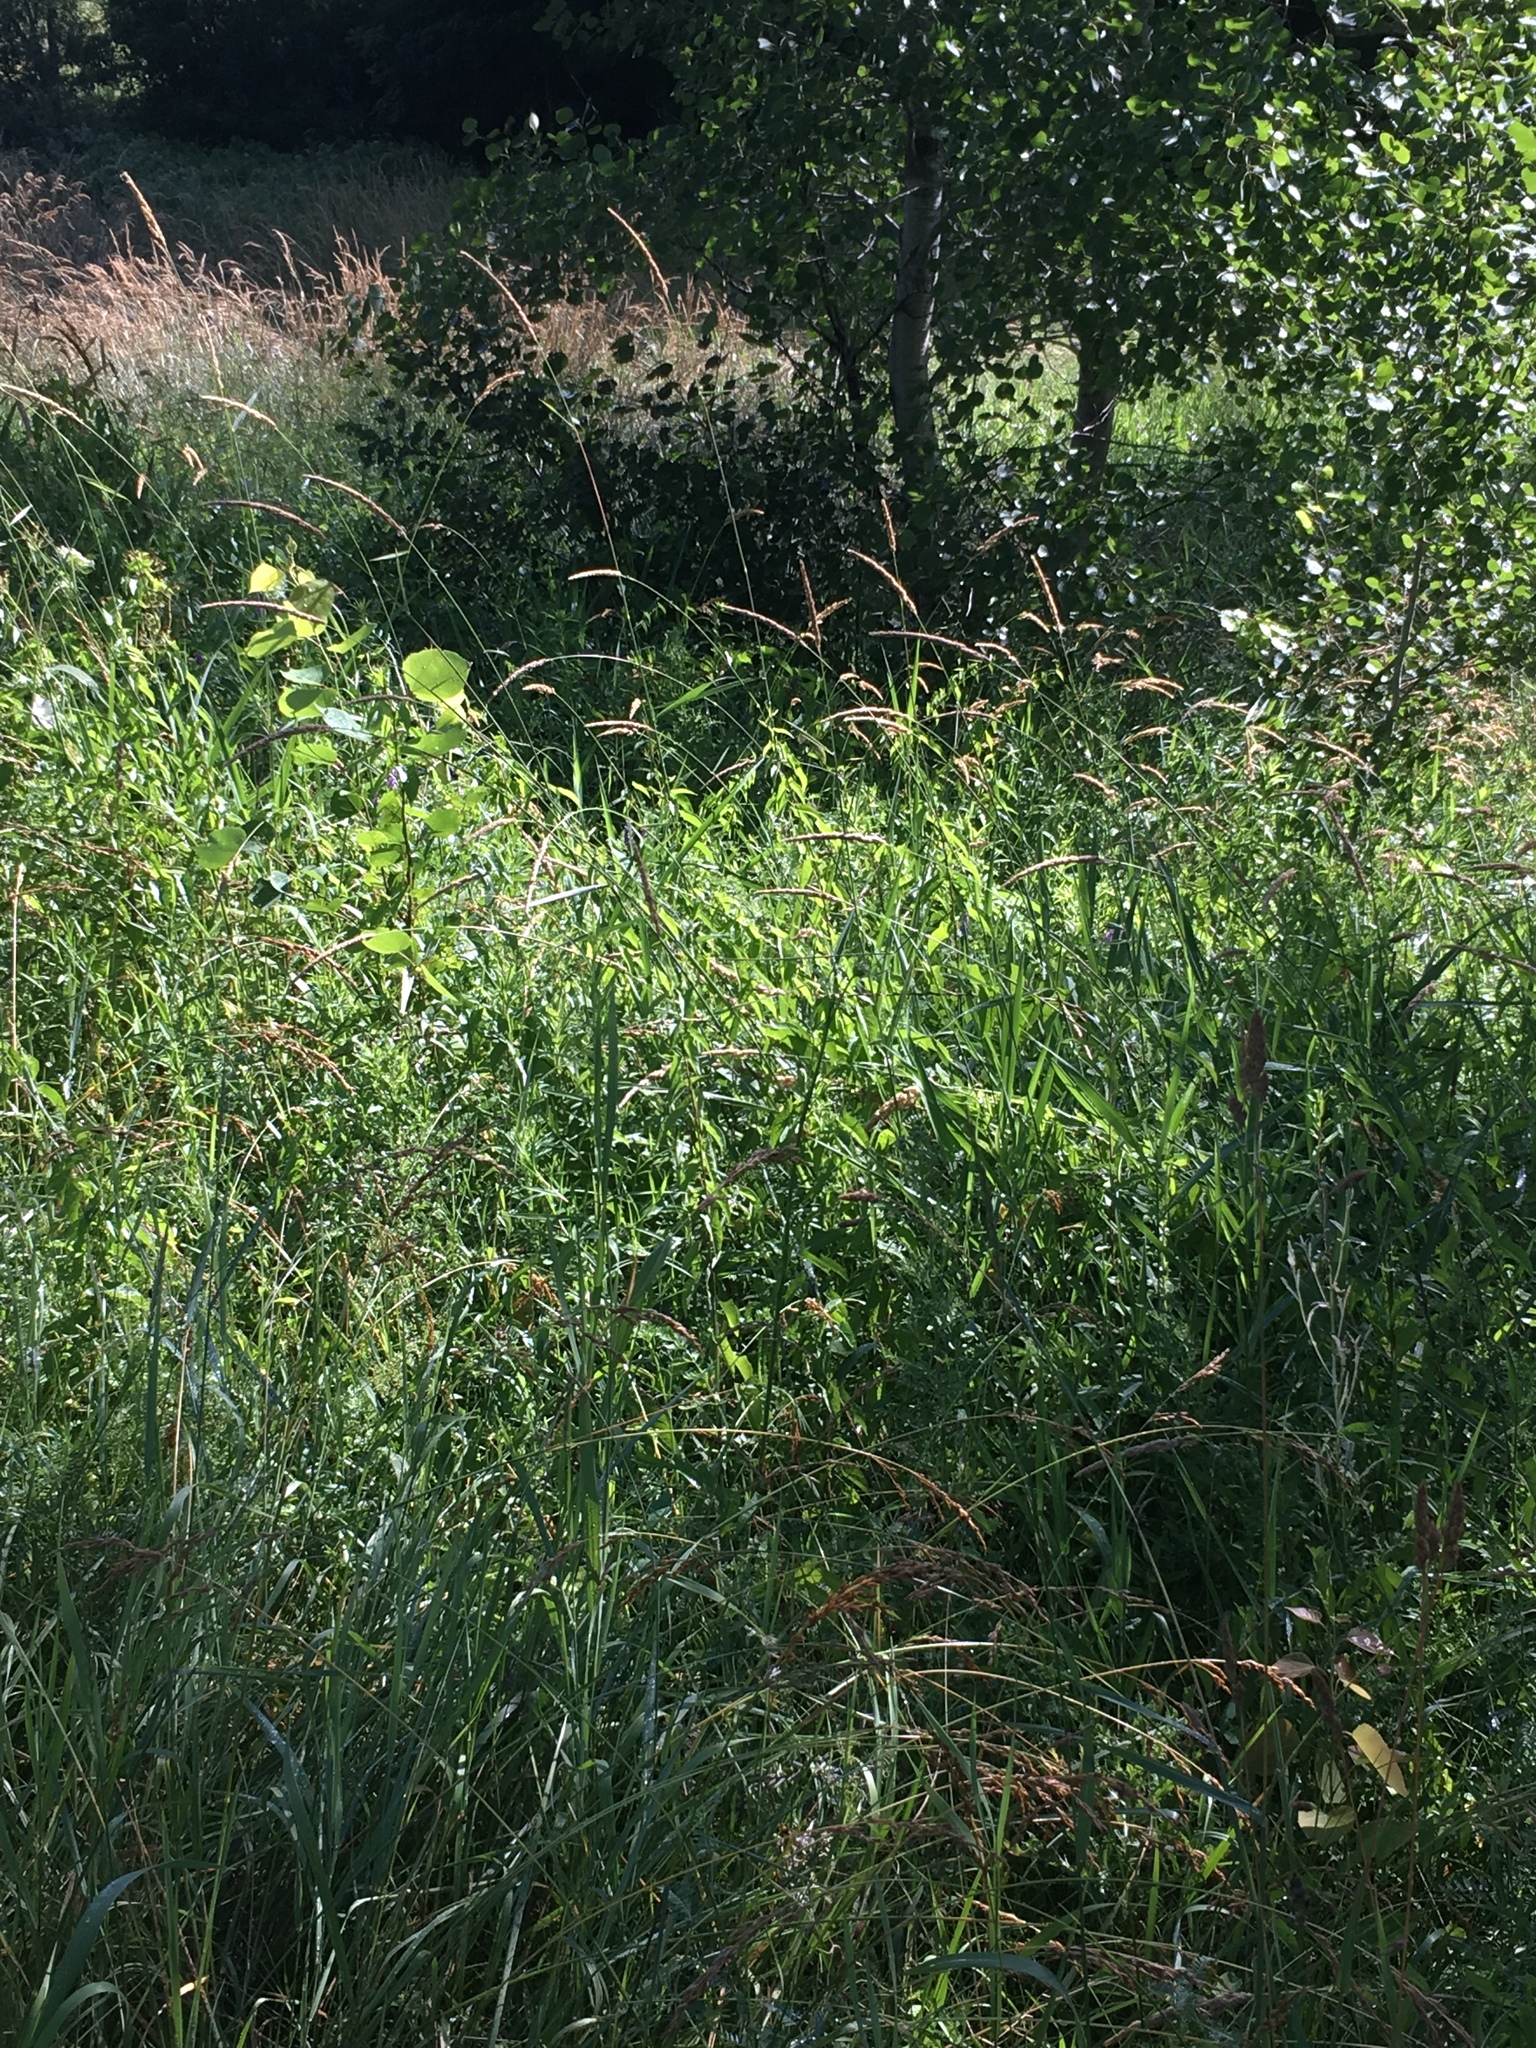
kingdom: Plantae
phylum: Tracheophyta
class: Liliopsida
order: Poales
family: Poaceae
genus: Phalaris
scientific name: Phalaris arundinacea
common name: Reed canary-grass
